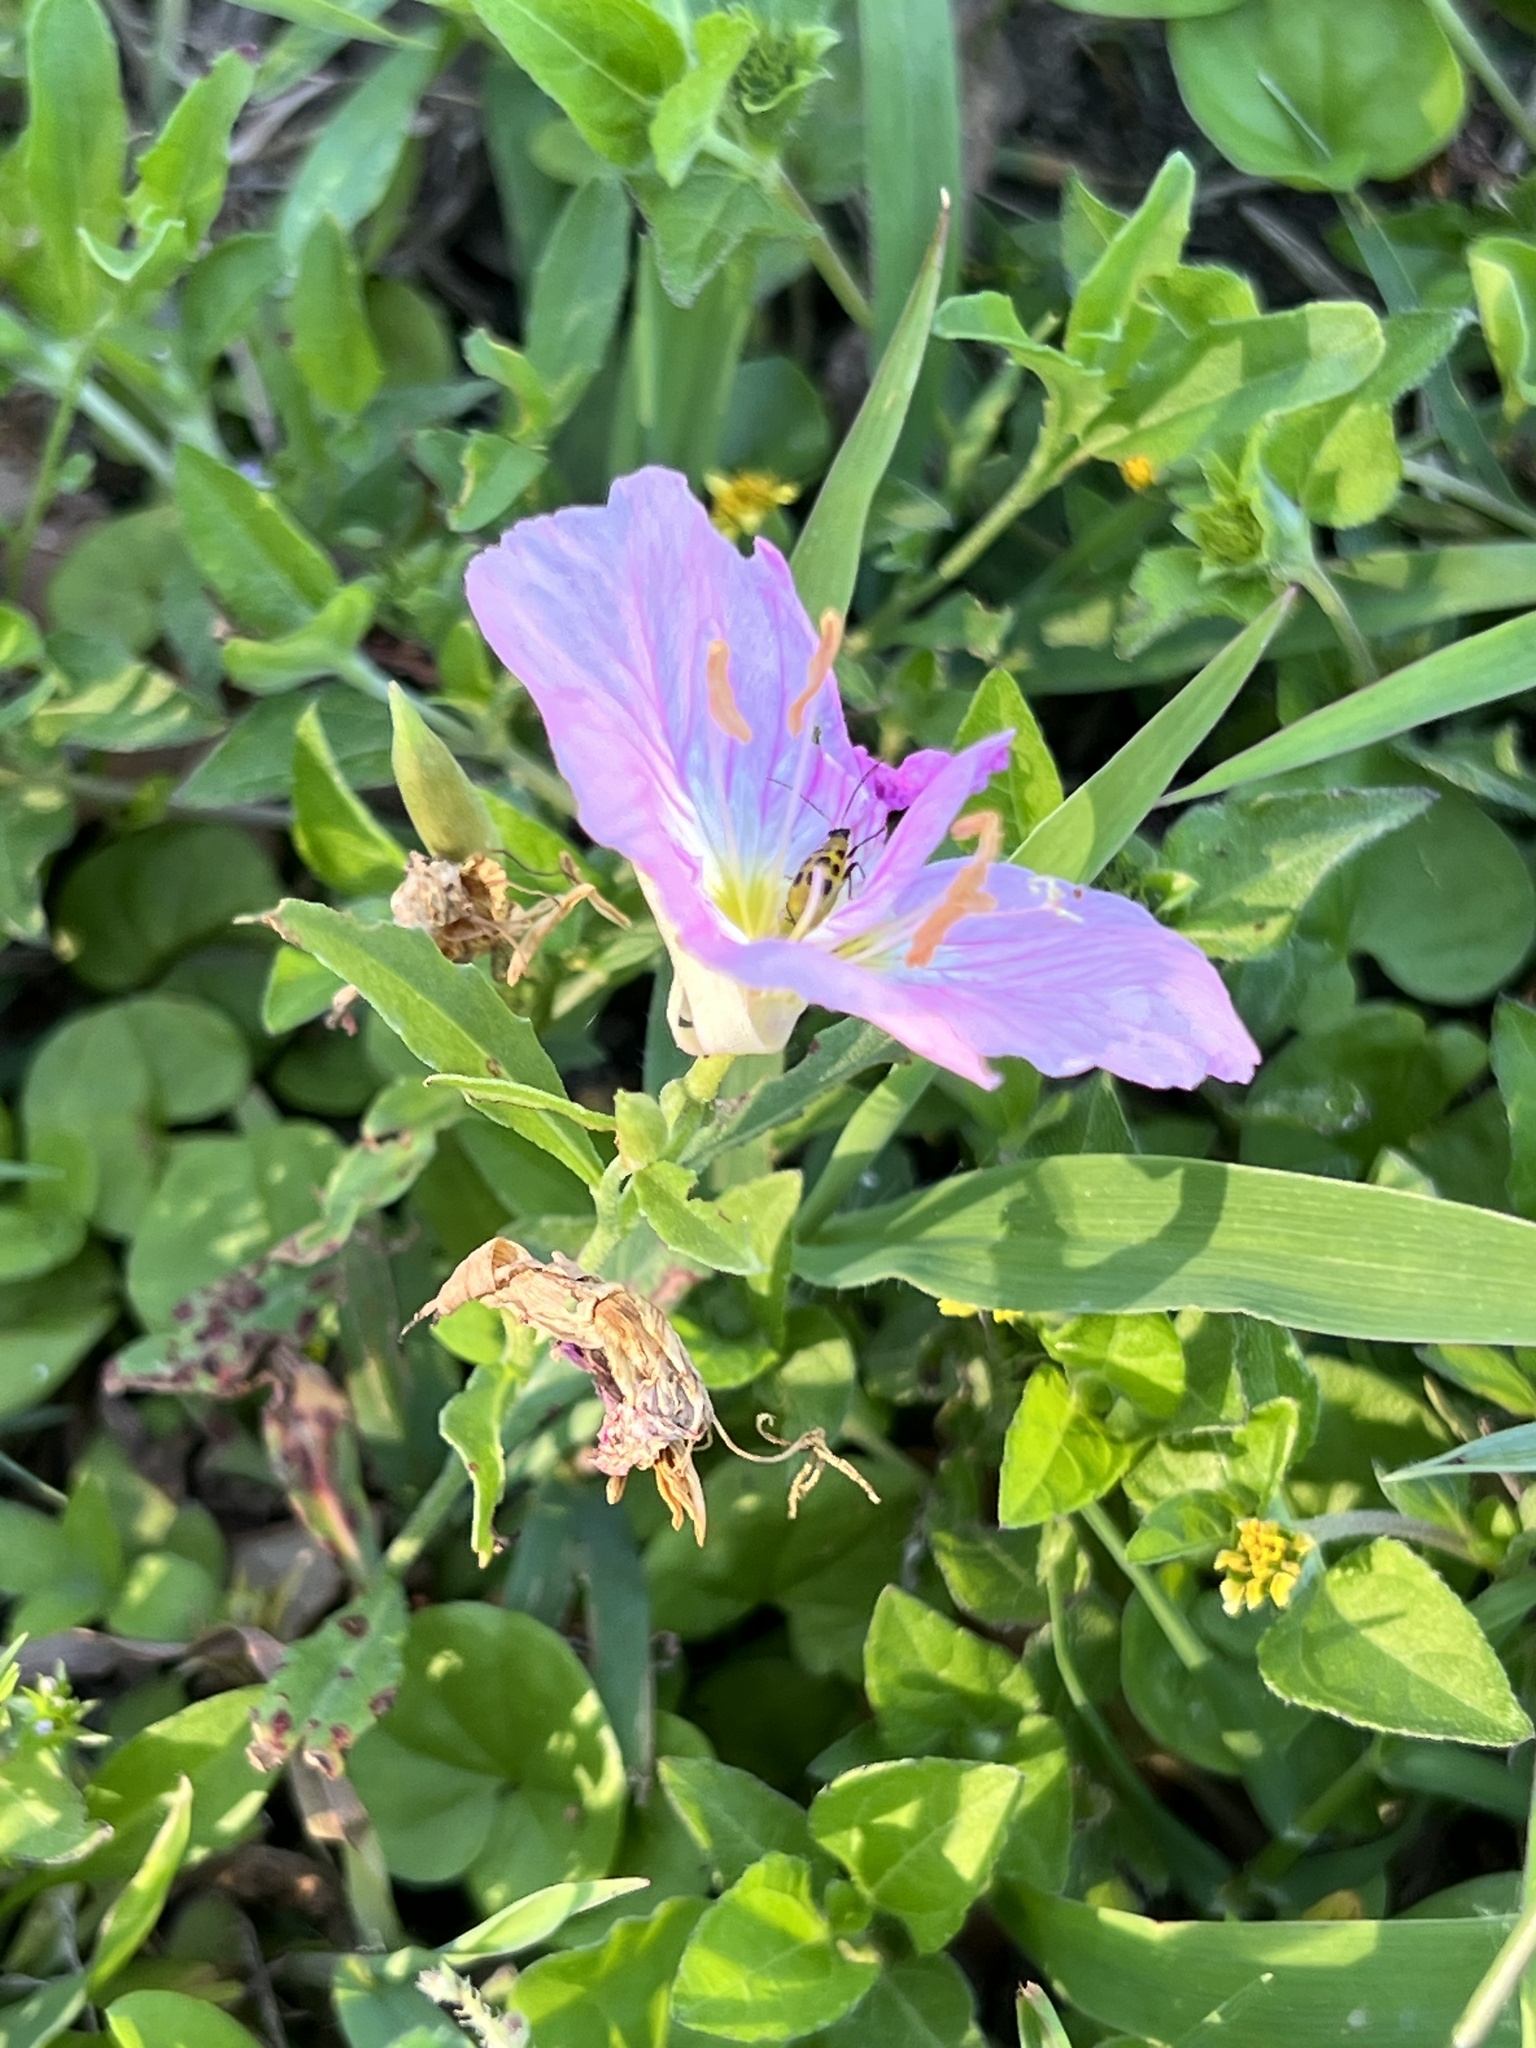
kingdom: Plantae
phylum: Tracheophyta
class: Magnoliopsida
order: Myrtales
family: Onagraceae
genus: Oenothera
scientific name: Oenothera speciosa
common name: White evening-primrose
